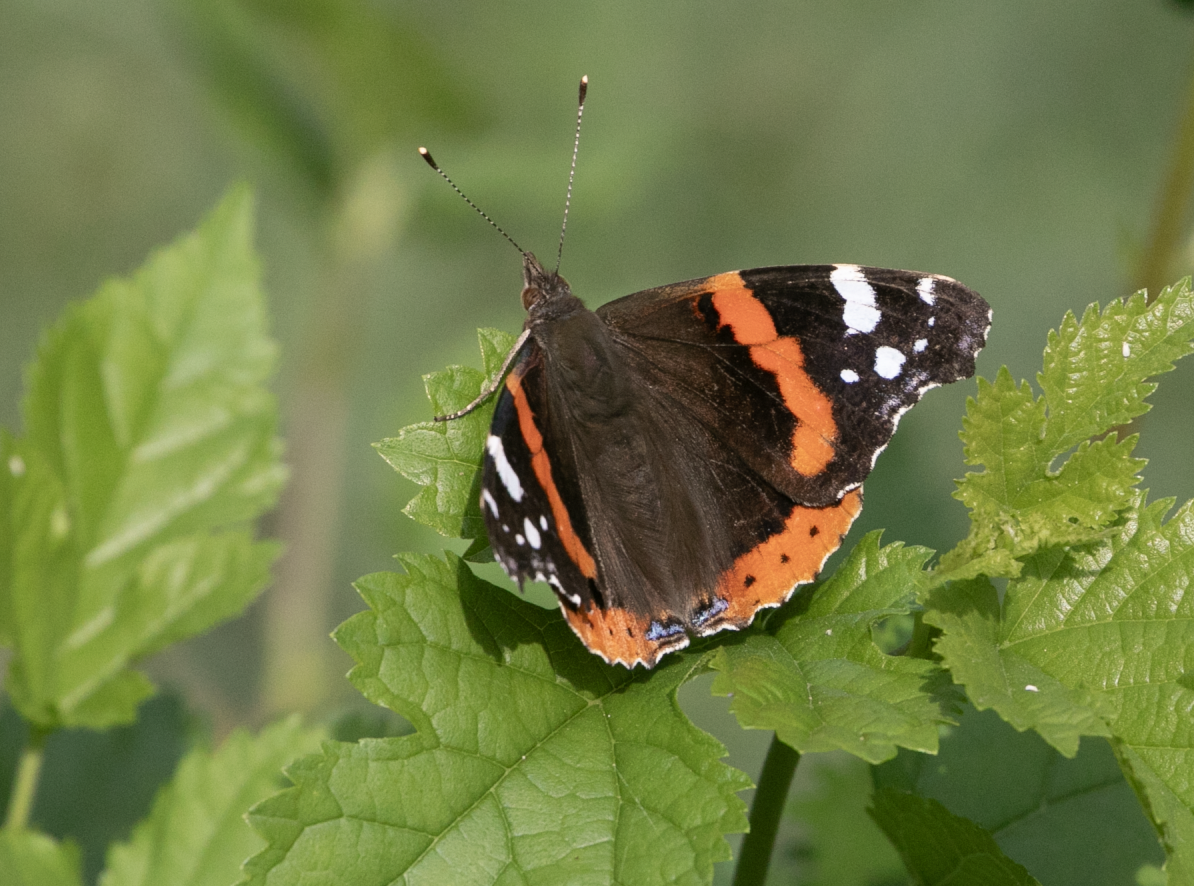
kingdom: Animalia
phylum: Arthropoda
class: Insecta
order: Lepidoptera
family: Nymphalidae
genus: Vanessa
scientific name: Vanessa atalanta
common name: Red admiral
